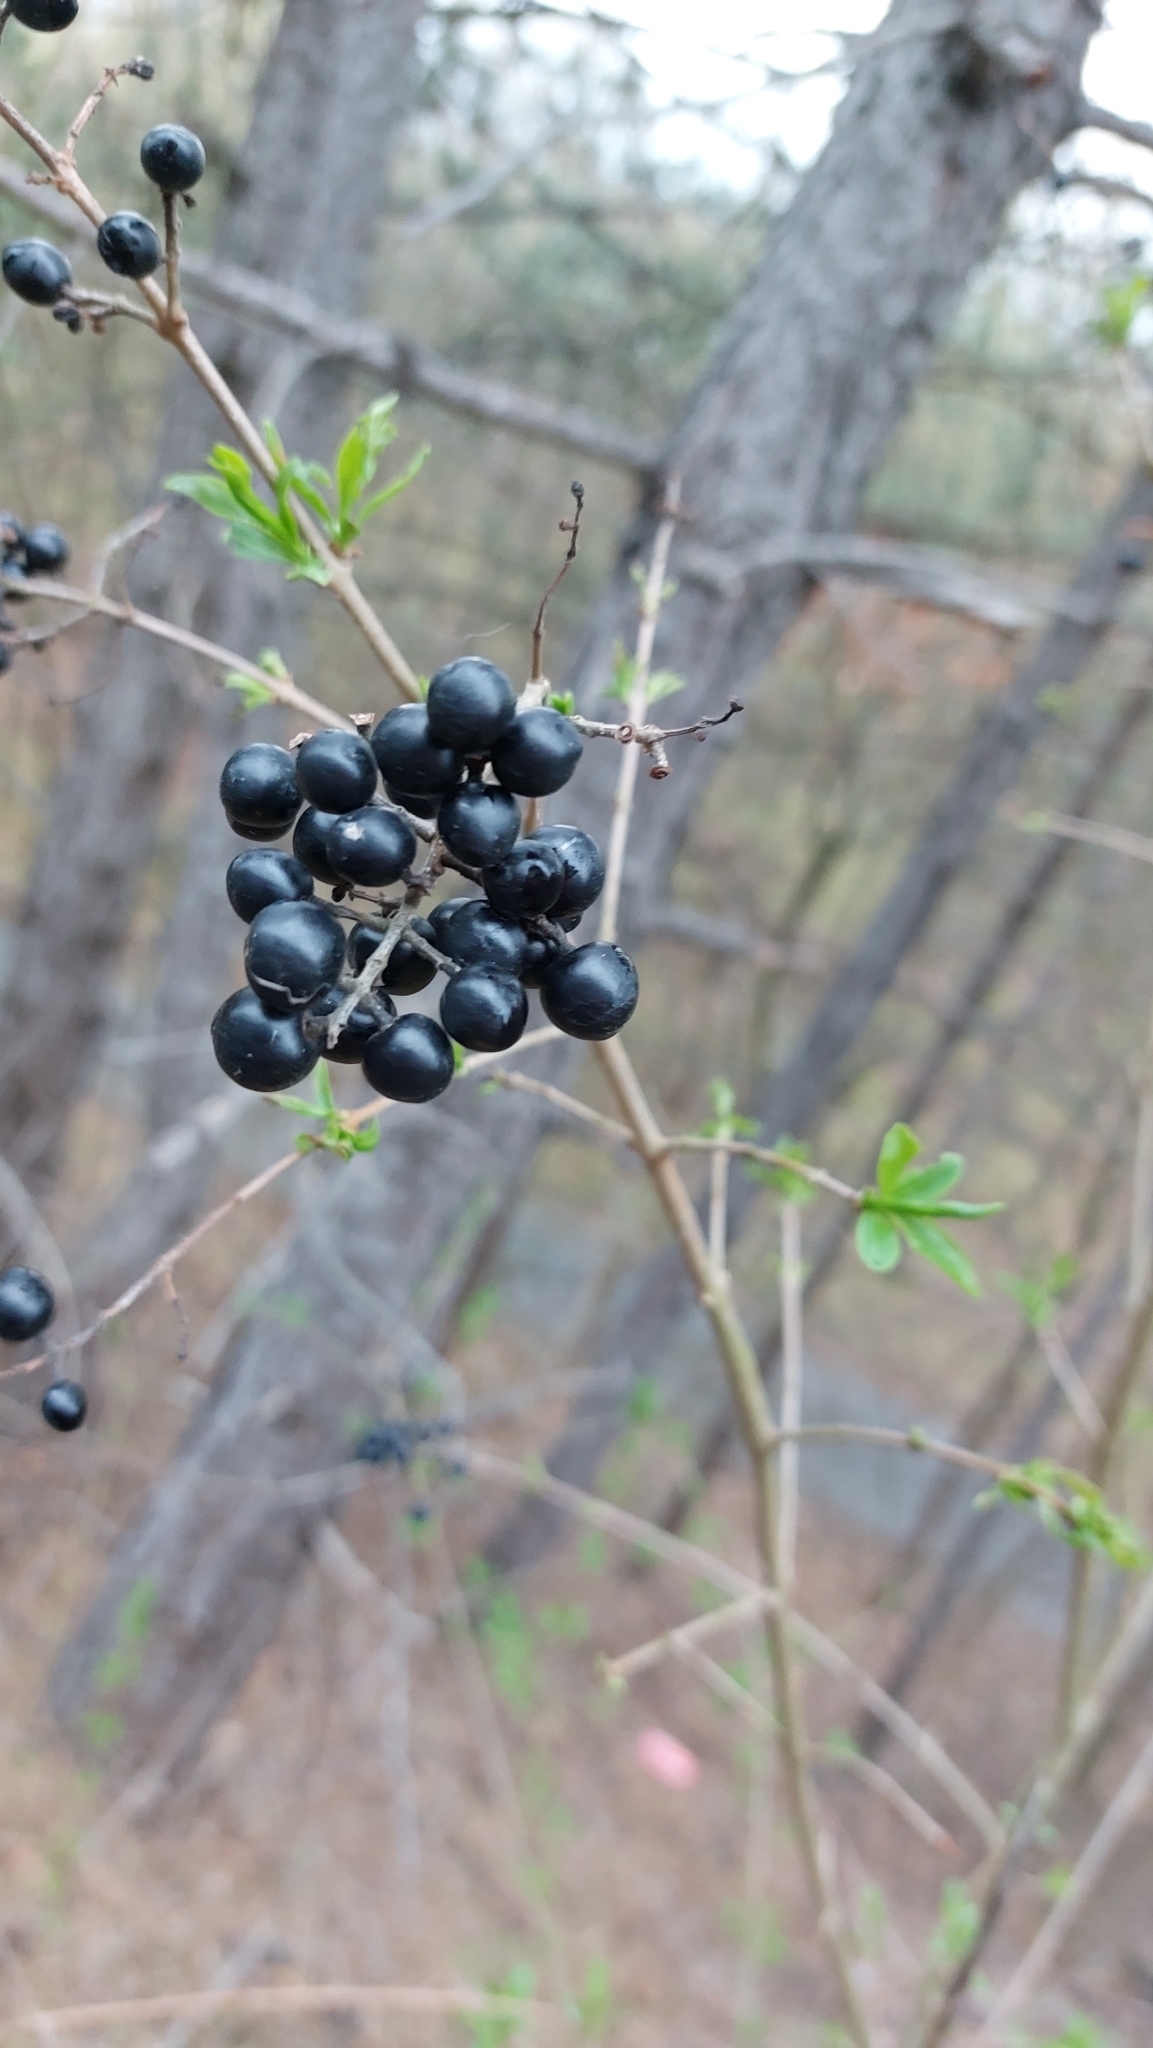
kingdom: Plantae
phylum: Tracheophyta
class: Magnoliopsida
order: Lamiales
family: Oleaceae
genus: Ligustrum
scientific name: Ligustrum vulgare
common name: Wild privet
